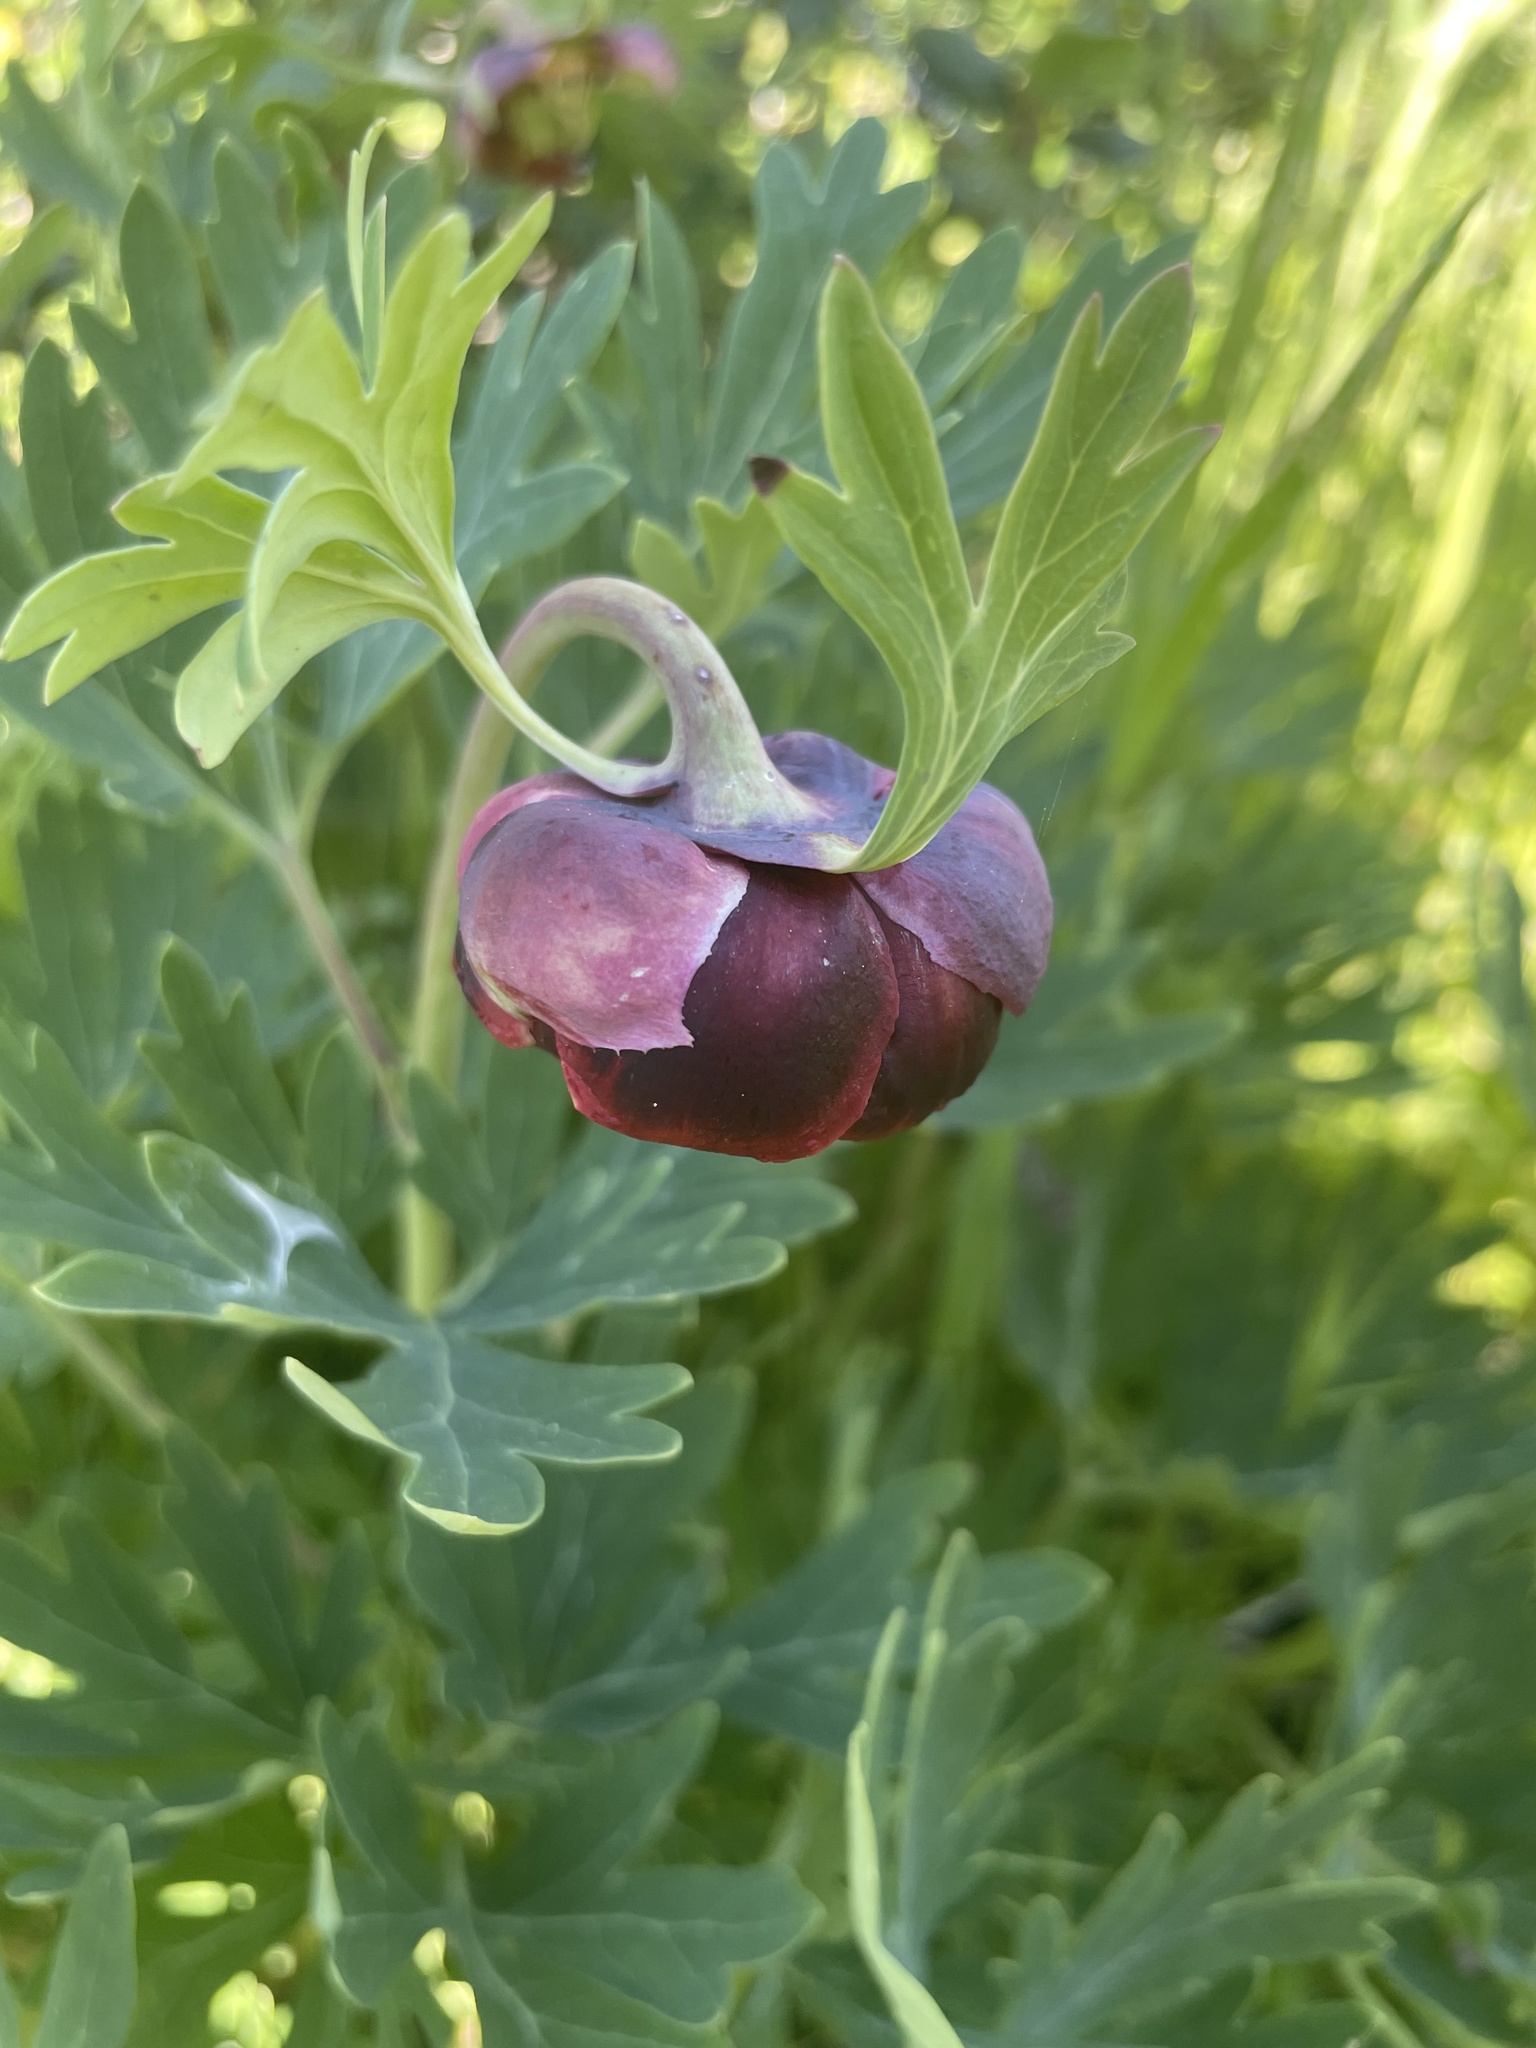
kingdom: Plantae
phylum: Tracheophyta
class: Magnoliopsida
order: Saxifragales
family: Paeoniaceae
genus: Paeonia
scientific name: Paeonia californica
